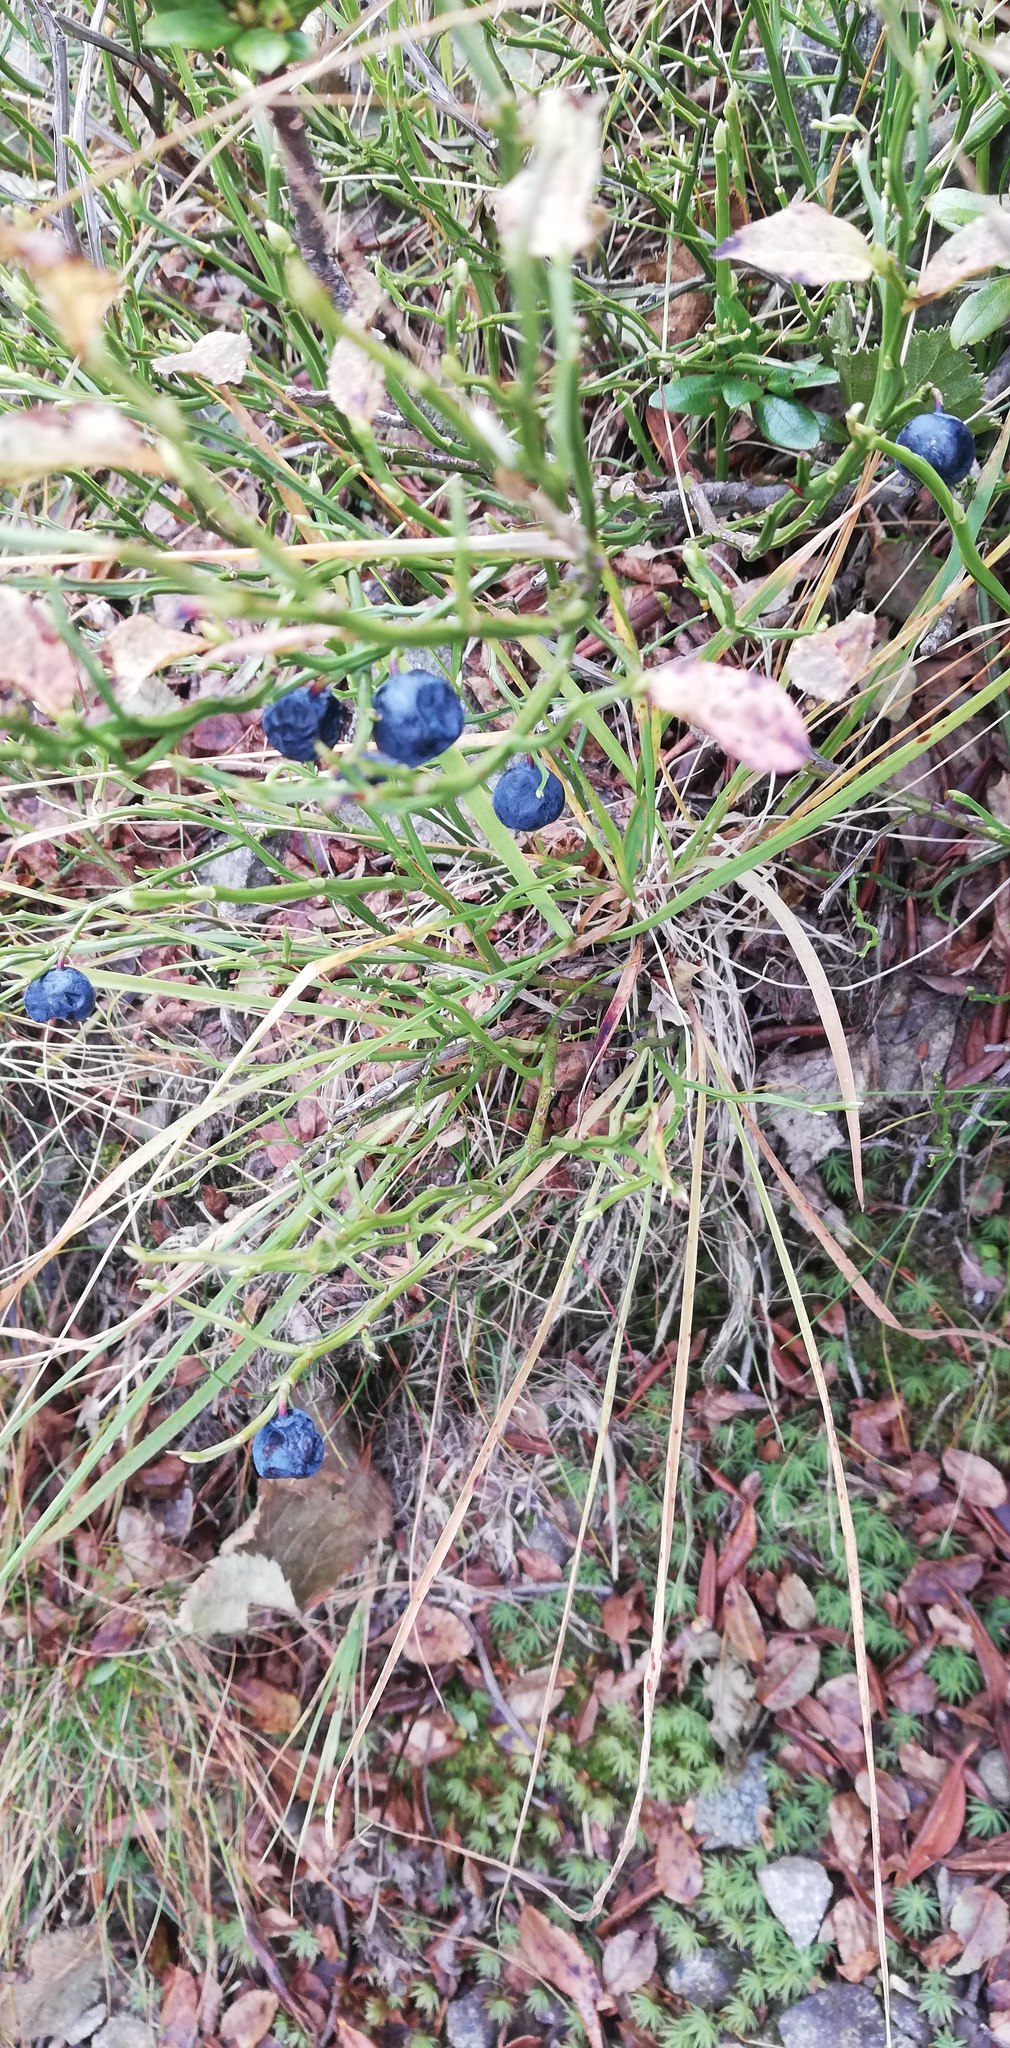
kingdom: Plantae
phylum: Tracheophyta
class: Magnoliopsida
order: Ericales
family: Ericaceae
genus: Vaccinium
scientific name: Vaccinium myrtillus
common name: Bilberry
